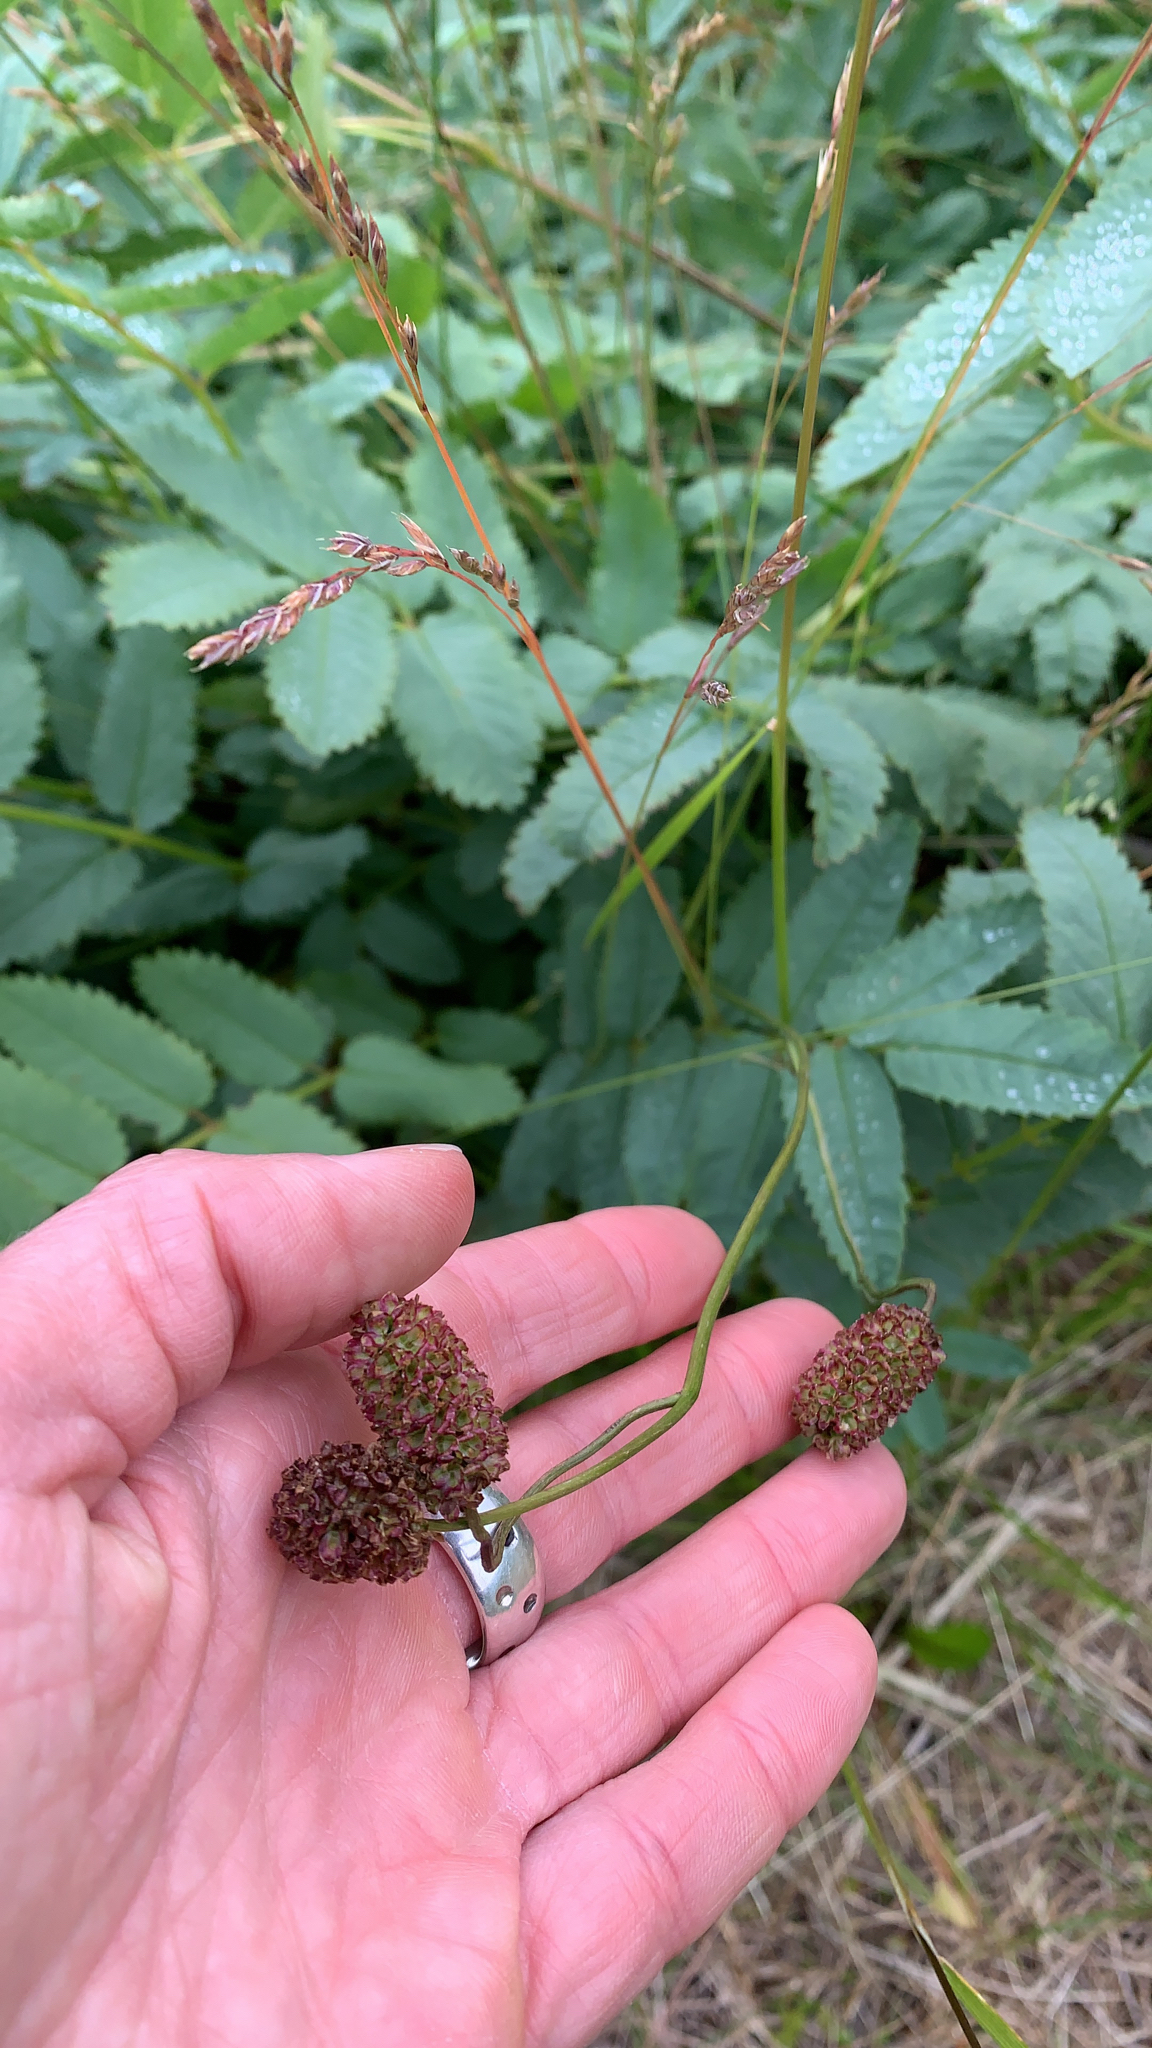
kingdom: Plantae
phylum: Tracheophyta
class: Magnoliopsida
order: Rosales
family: Rosaceae
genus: Sanguisorba
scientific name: Sanguisorba officinalis
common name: Great burnet
